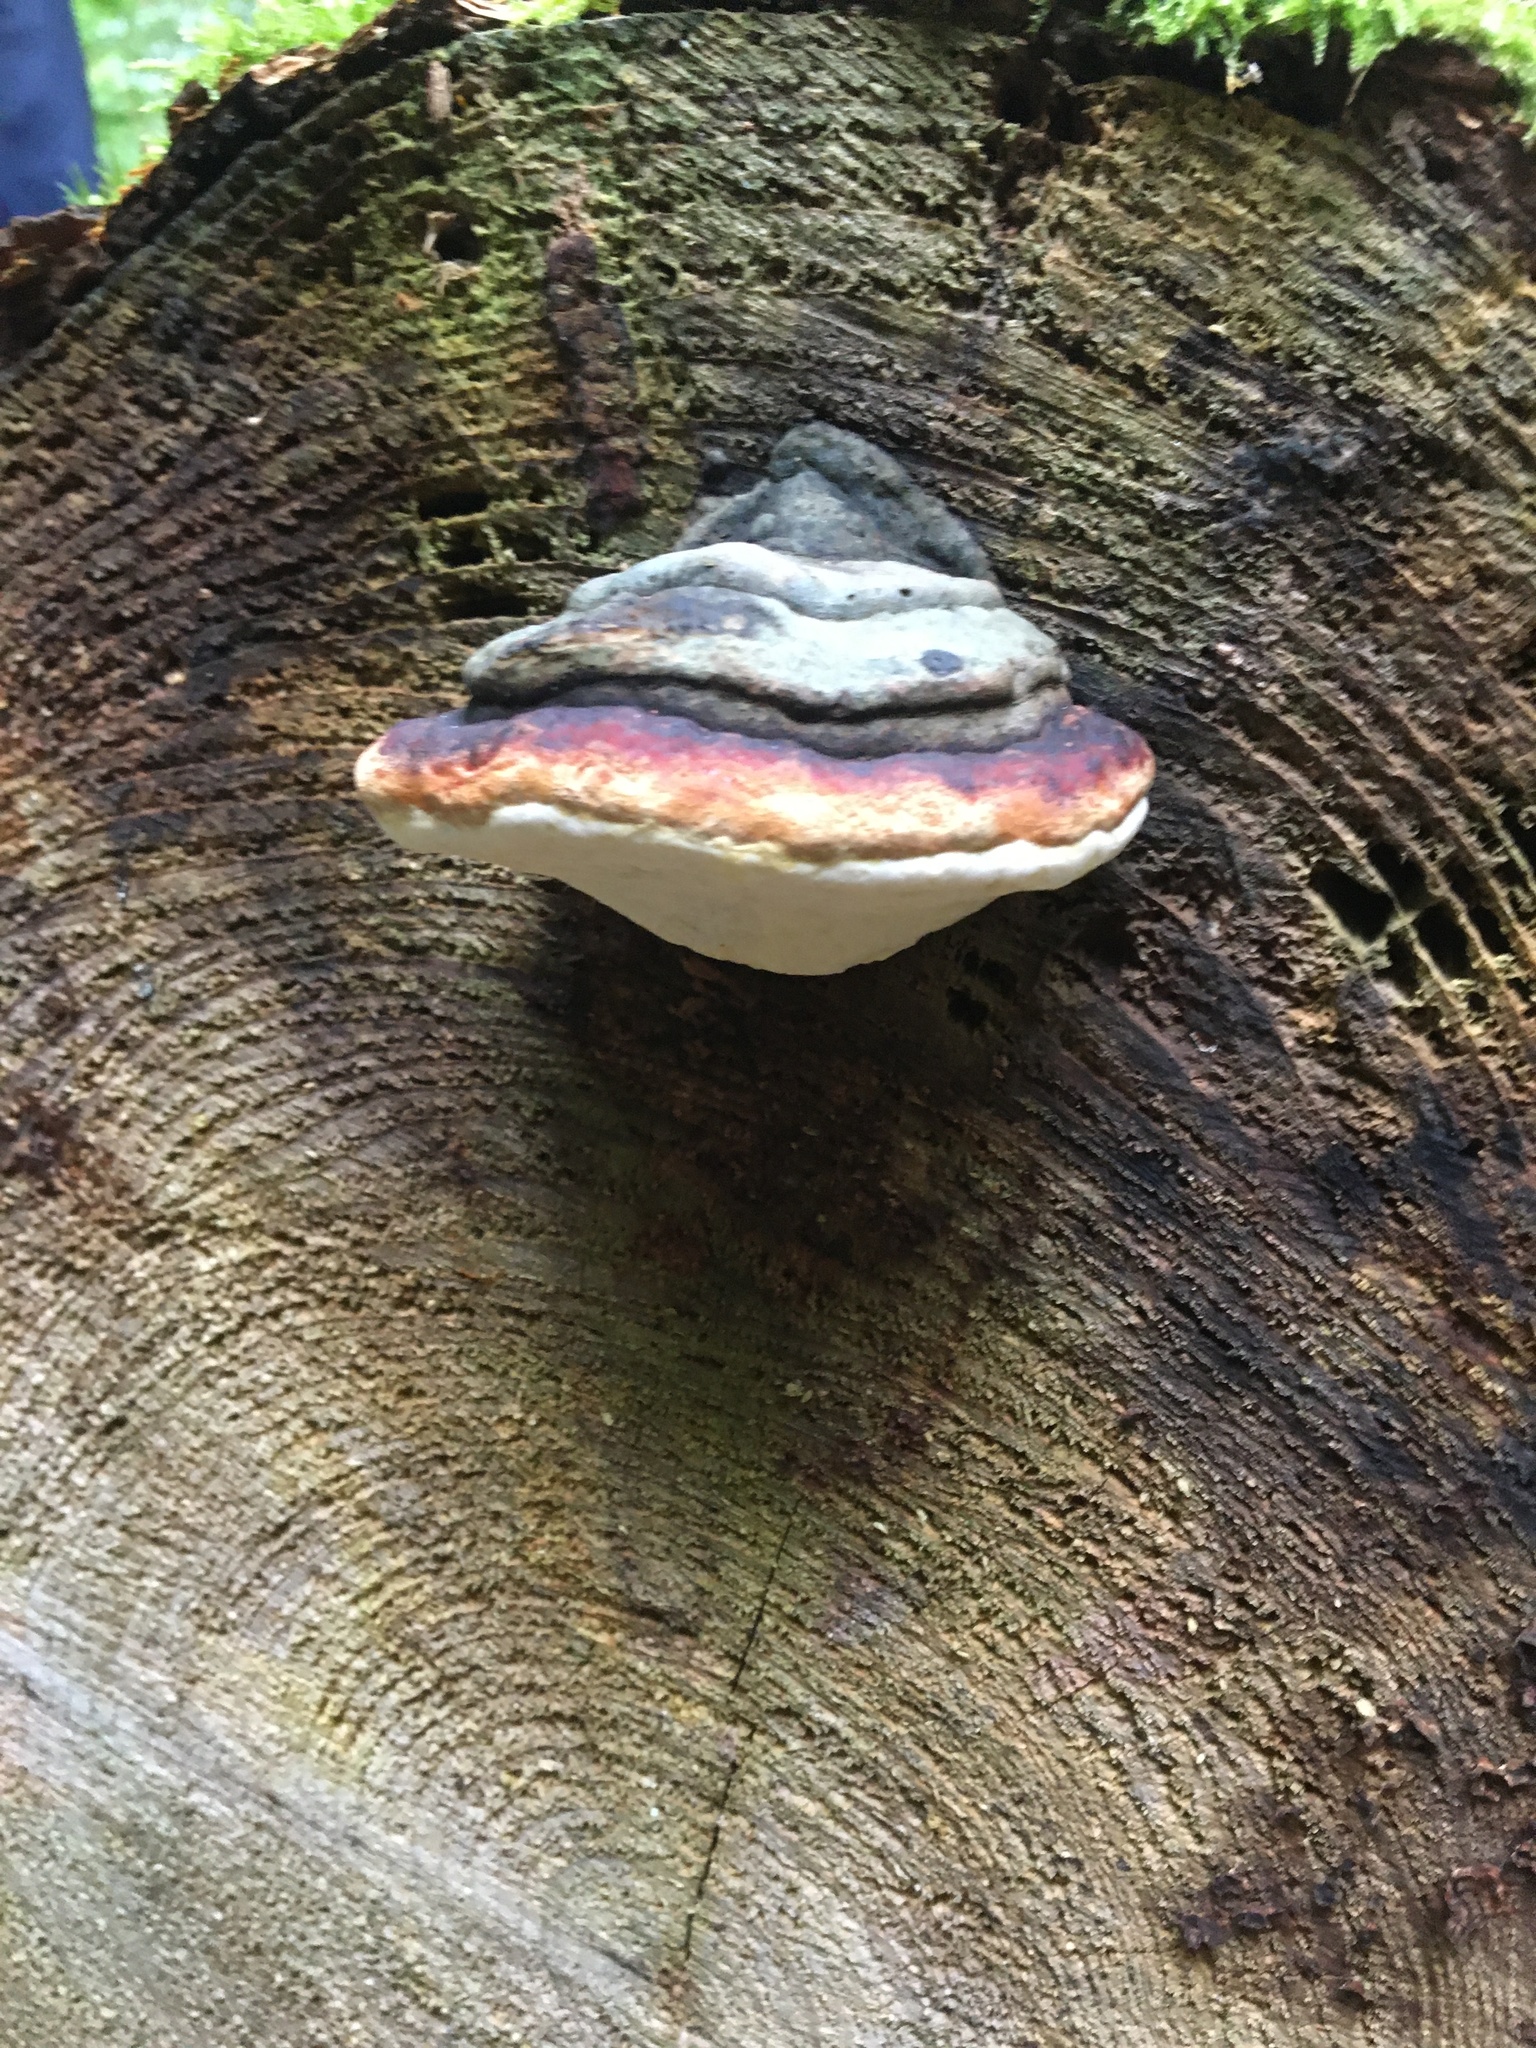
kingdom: Fungi
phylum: Basidiomycota
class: Agaricomycetes
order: Polyporales
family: Fomitopsidaceae
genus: Fomitopsis
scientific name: Fomitopsis pinicola
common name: Red-belted bracket
